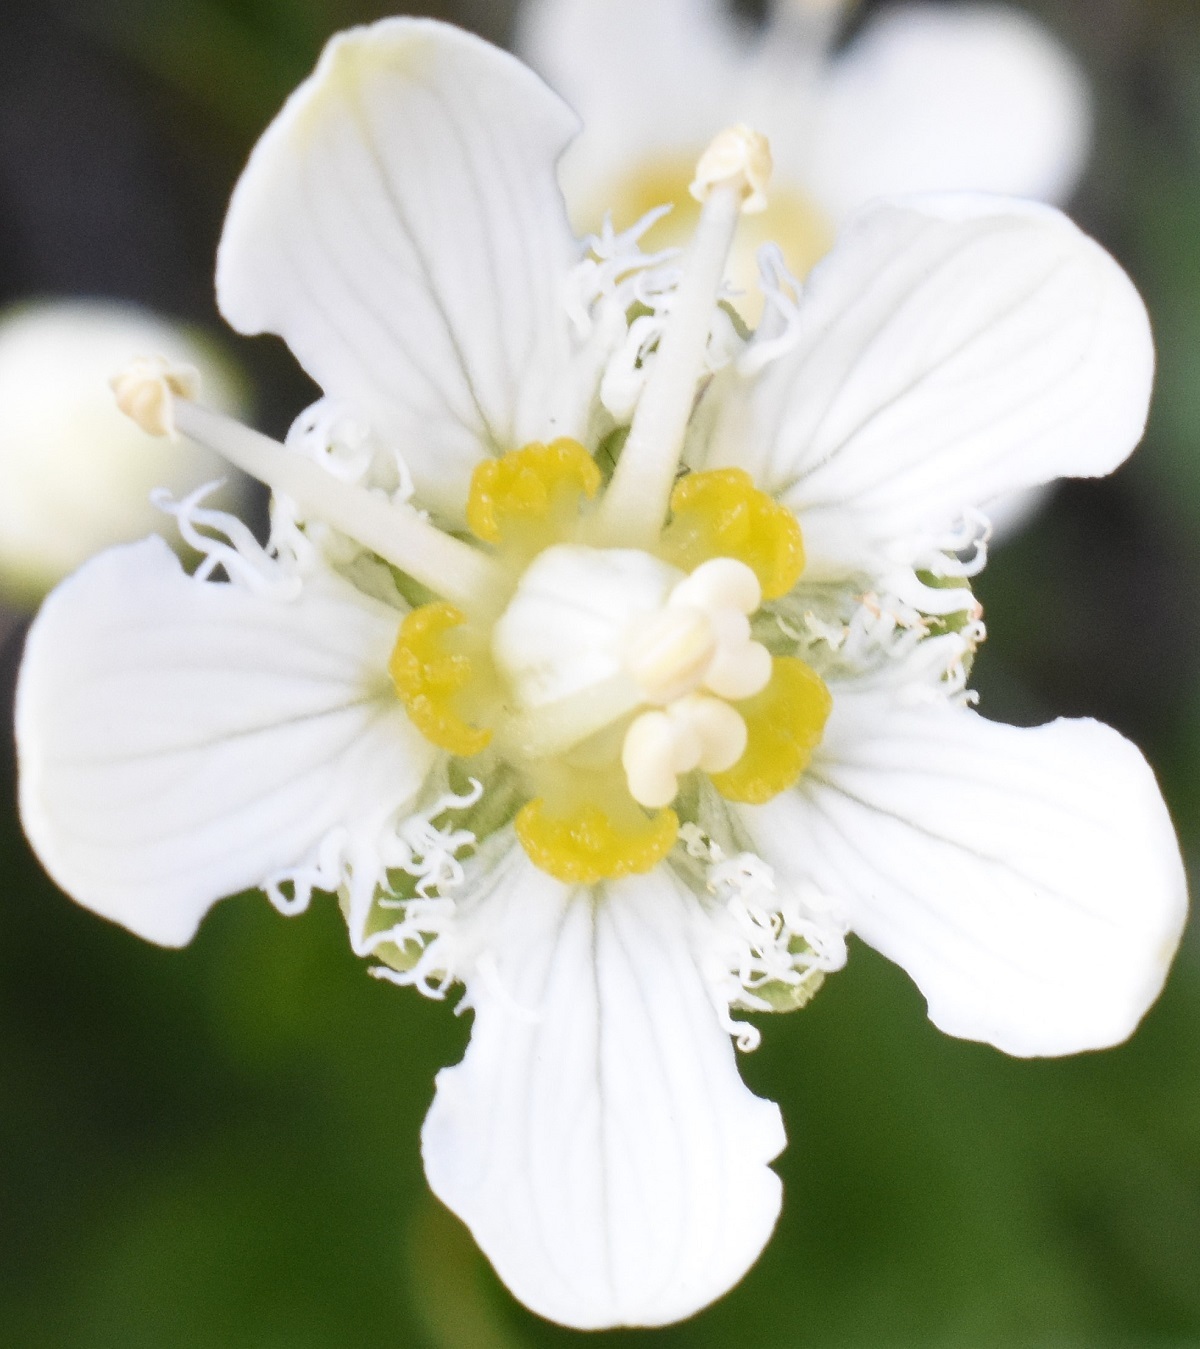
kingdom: Plantae
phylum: Tracheophyta
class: Magnoliopsida
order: Celastrales
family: Parnassiaceae
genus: Parnassia
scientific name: Parnassia fimbriata
